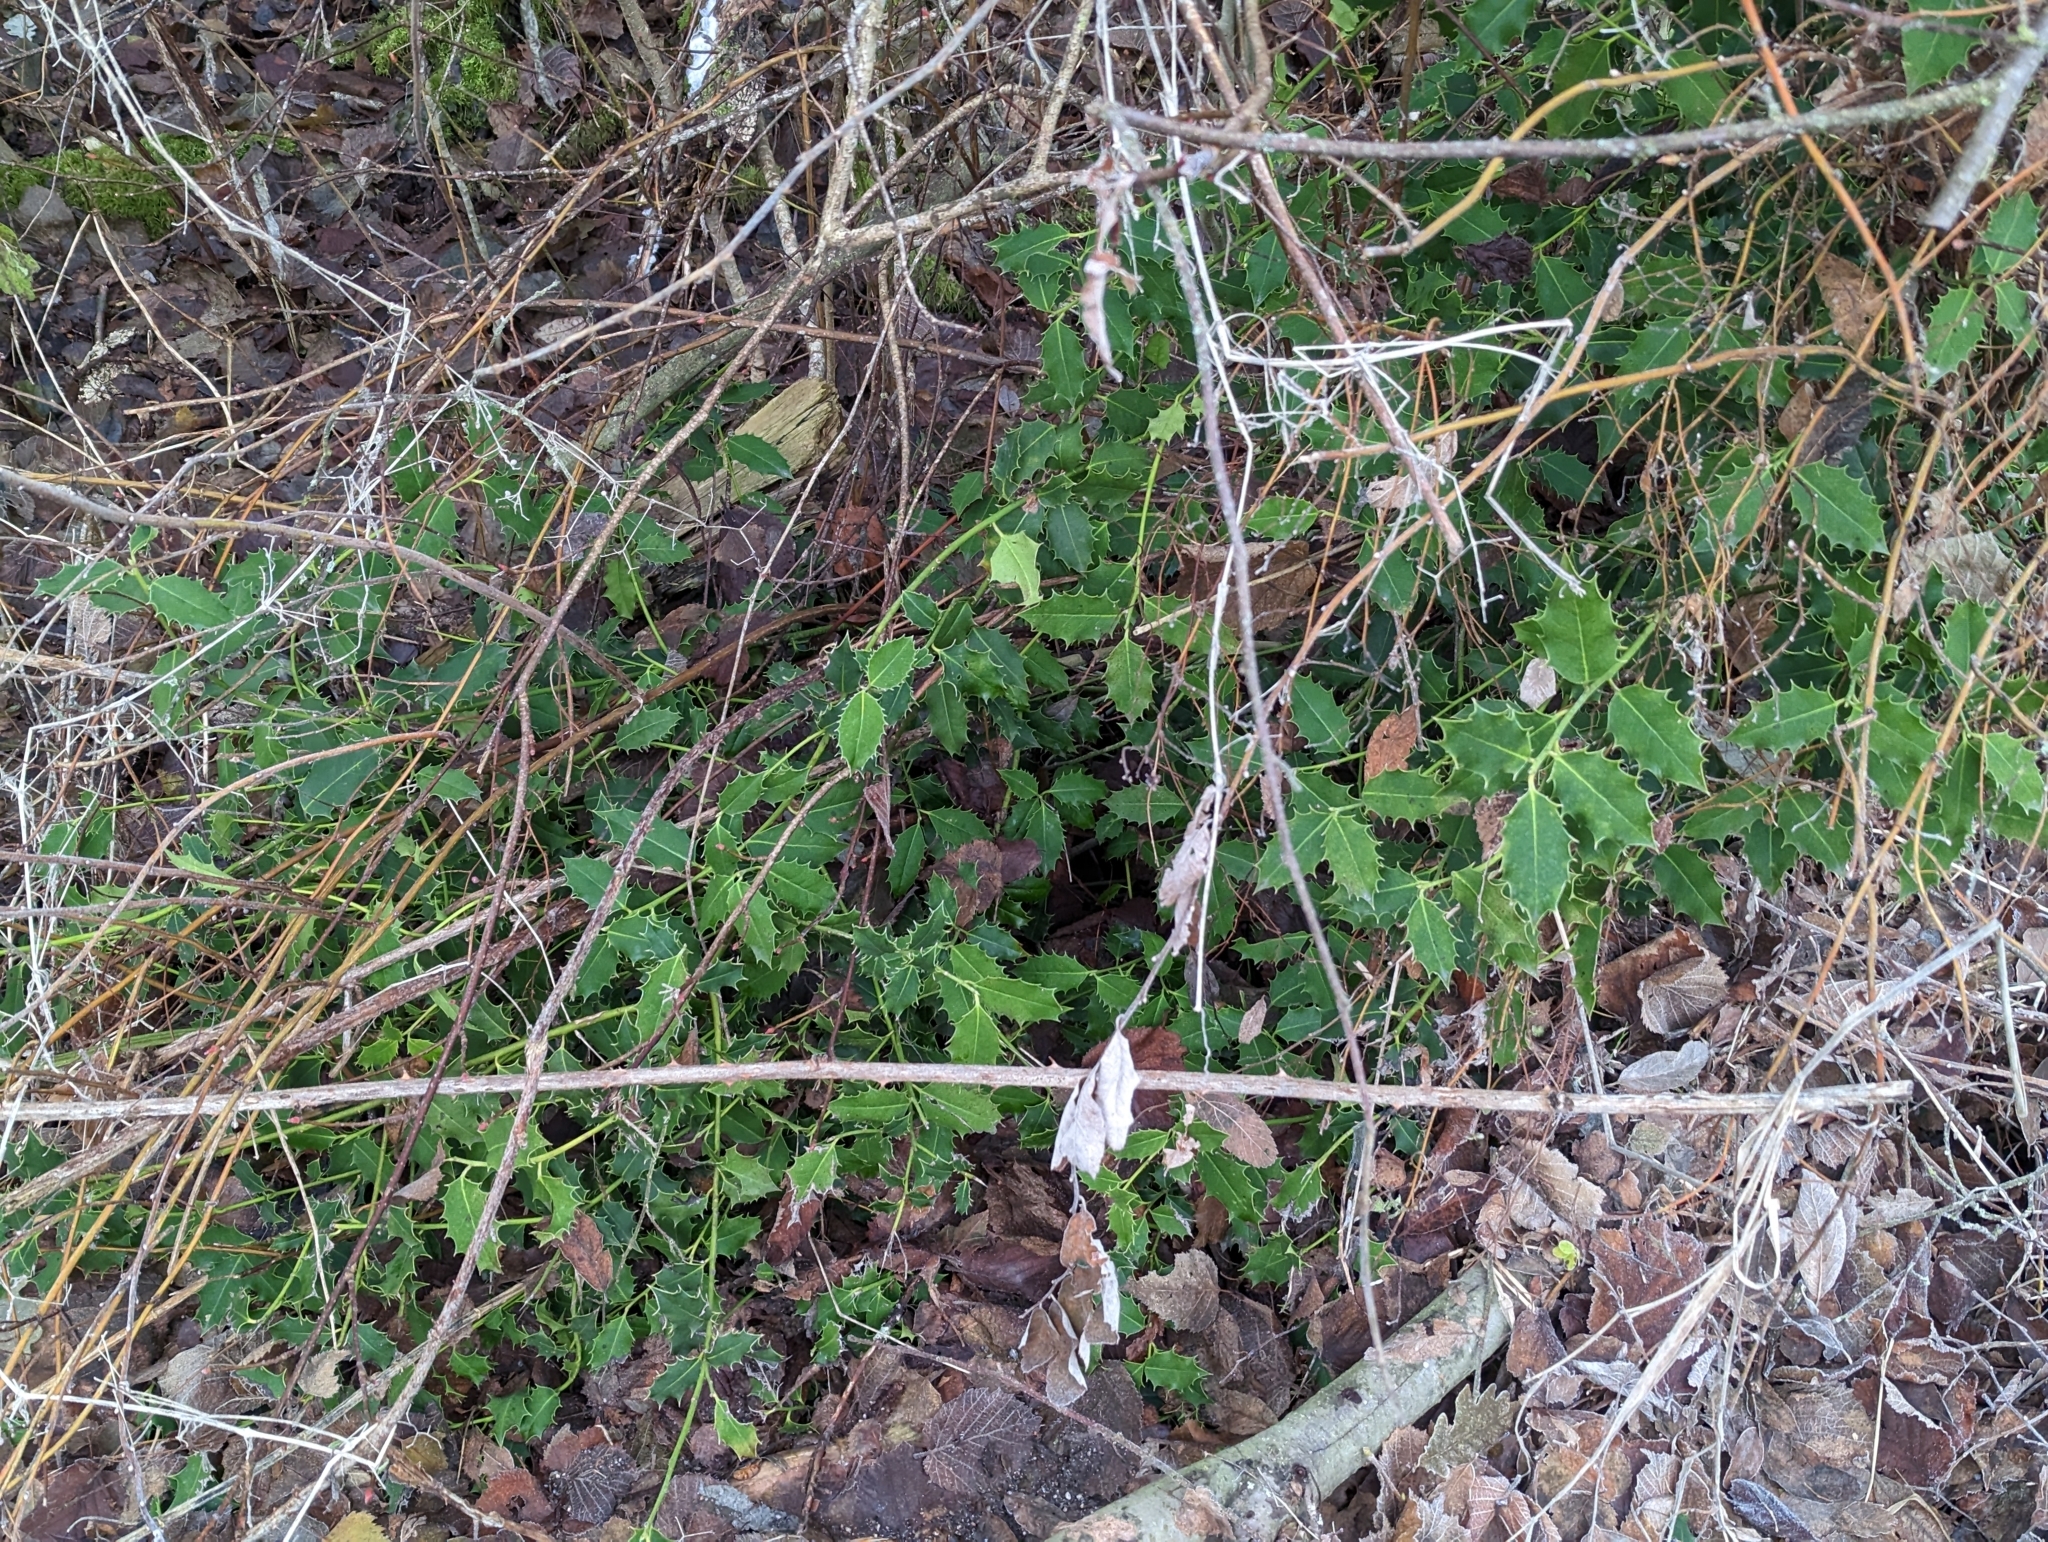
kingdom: Plantae
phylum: Tracheophyta
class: Magnoliopsida
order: Aquifoliales
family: Aquifoliaceae
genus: Ilex
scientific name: Ilex aquifolium
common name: English holly
